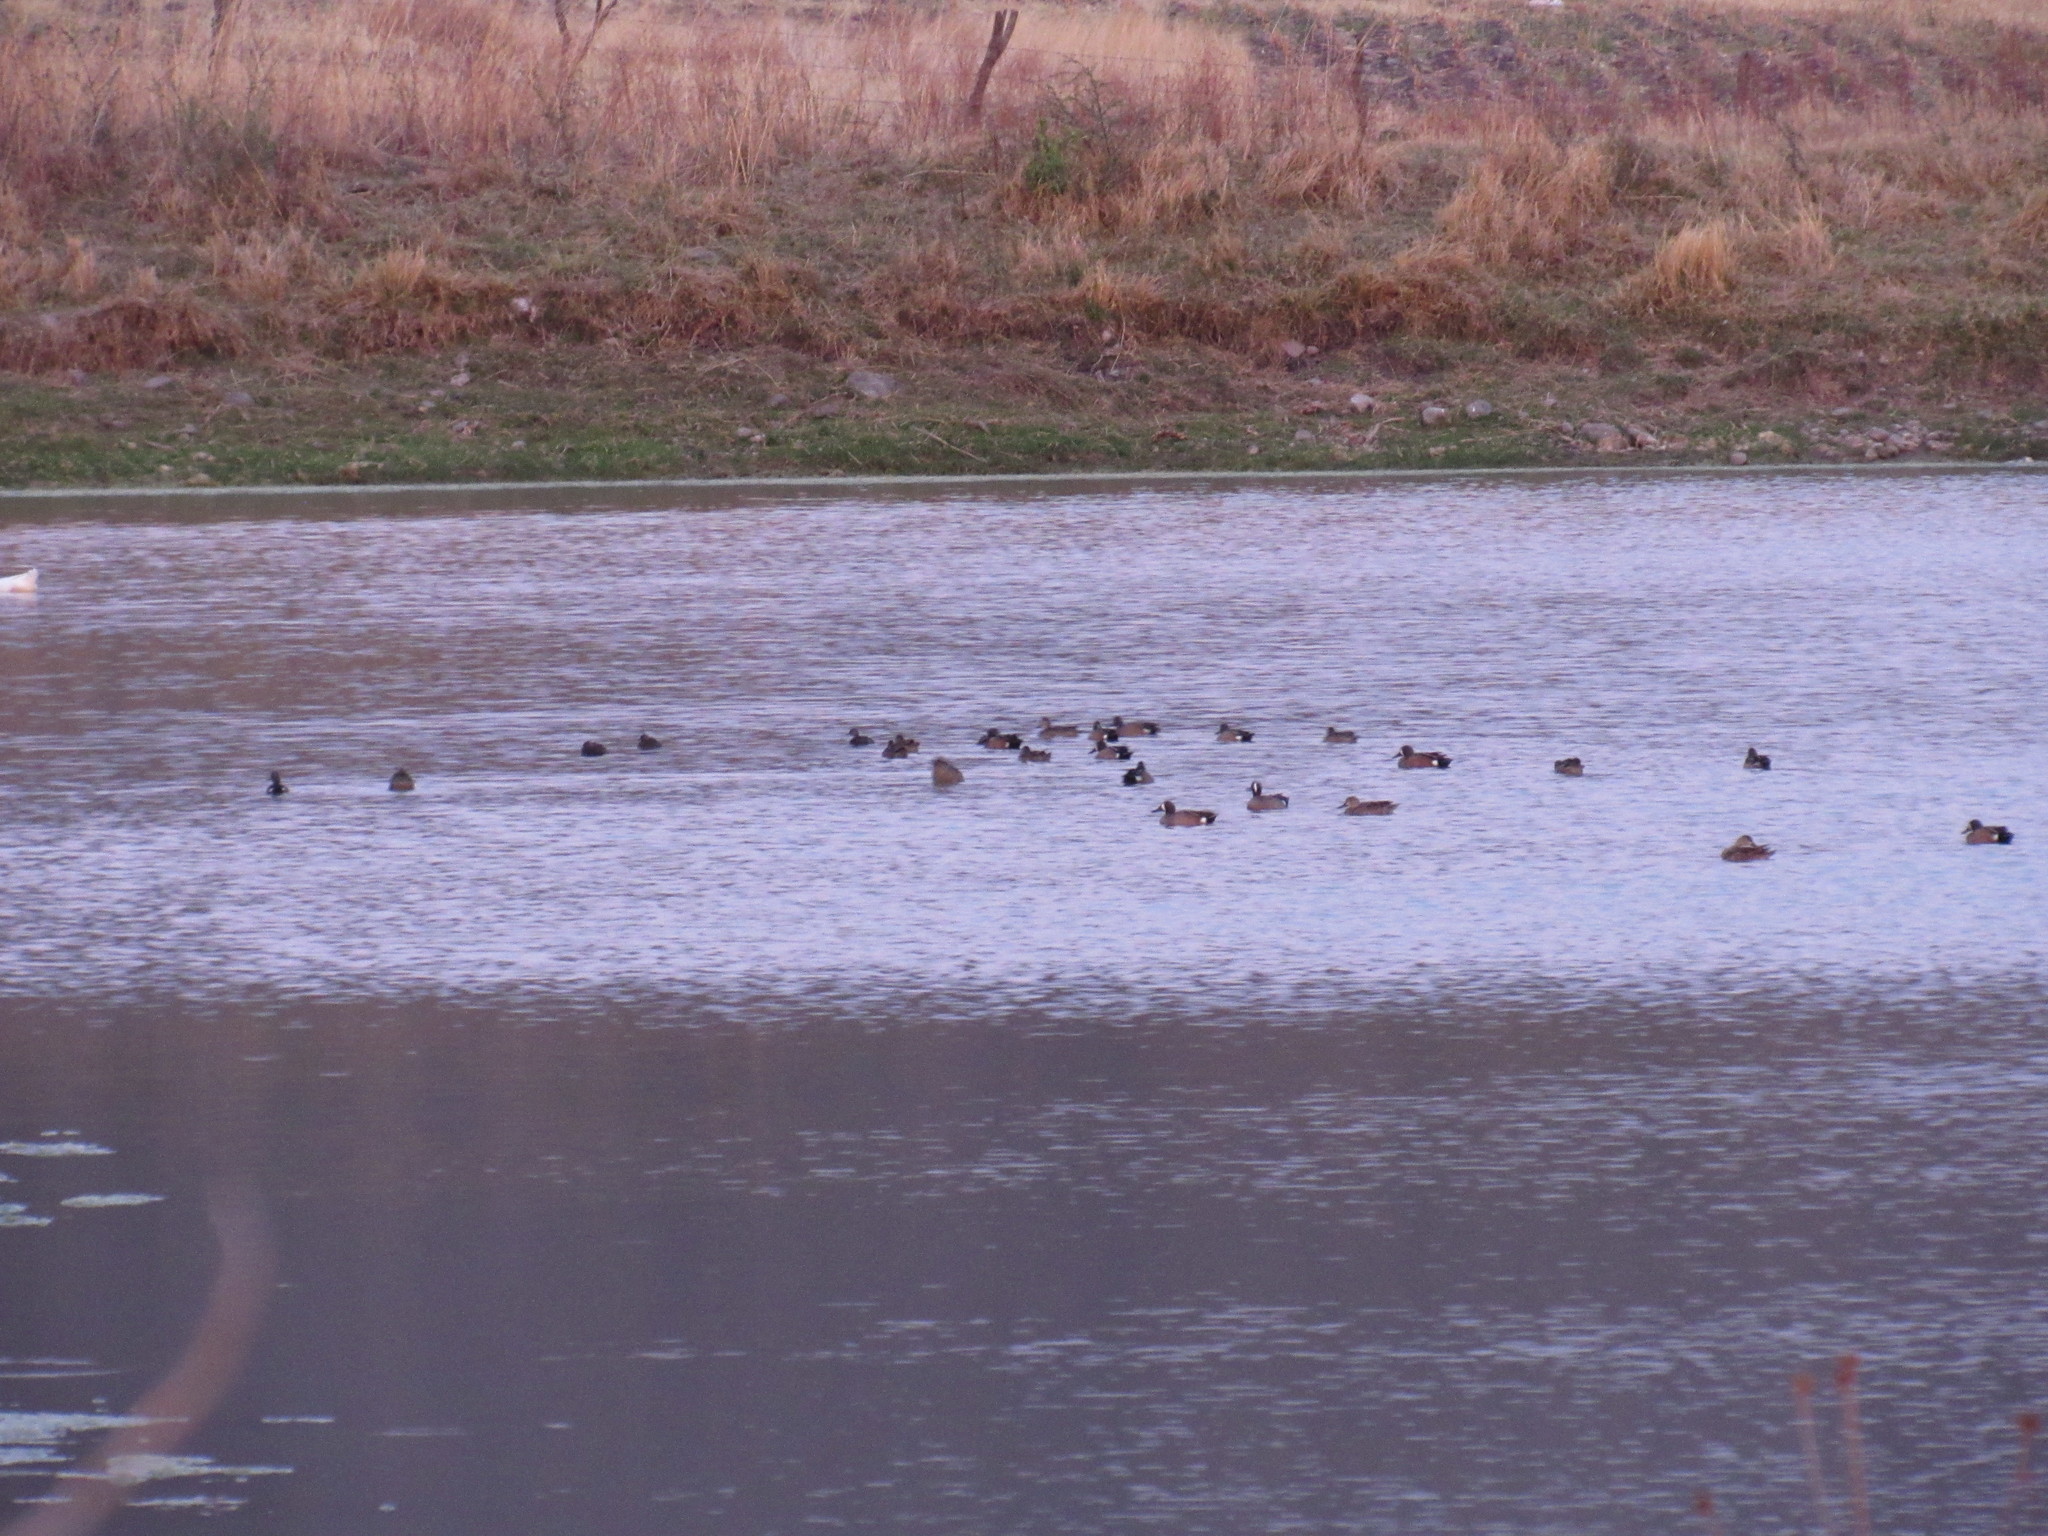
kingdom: Animalia
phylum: Chordata
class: Aves
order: Anseriformes
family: Anatidae
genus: Spatula
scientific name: Spatula discors
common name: Blue-winged teal
